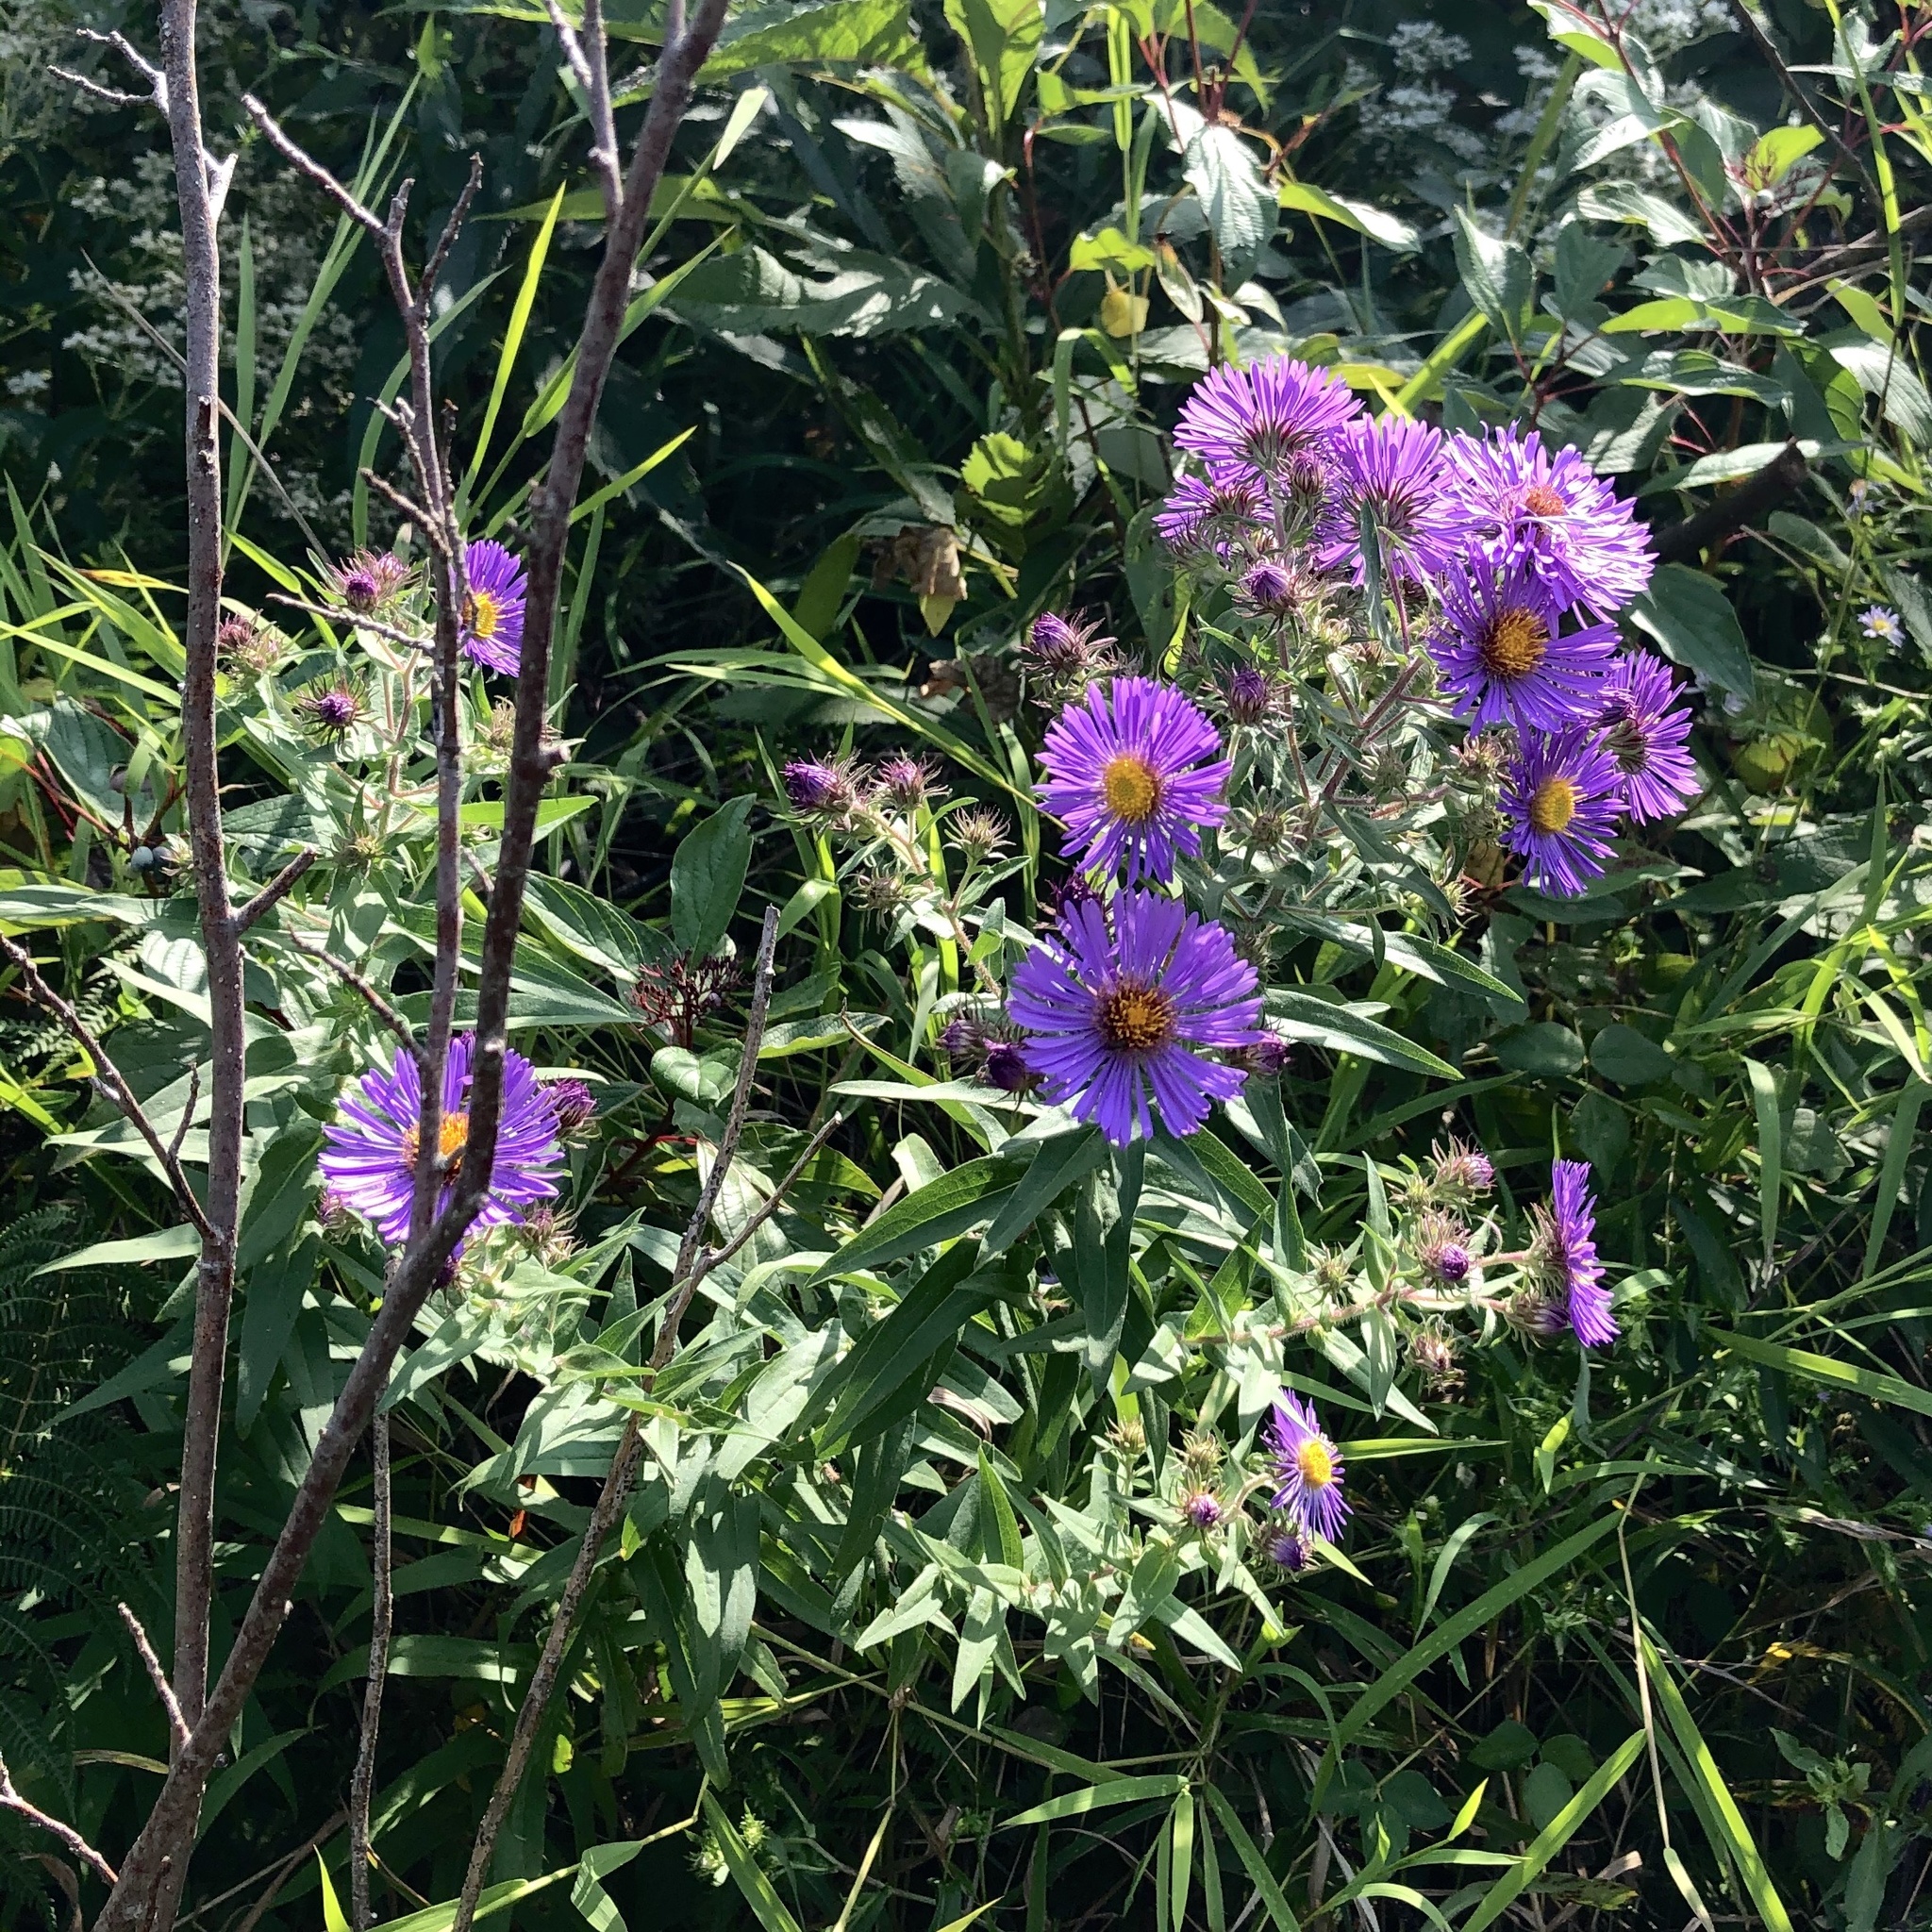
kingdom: Plantae
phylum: Tracheophyta
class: Magnoliopsida
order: Asterales
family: Asteraceae
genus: Symphyotrichum
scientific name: Symphyotrichum novae-angliae
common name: Michaelmas daisy
